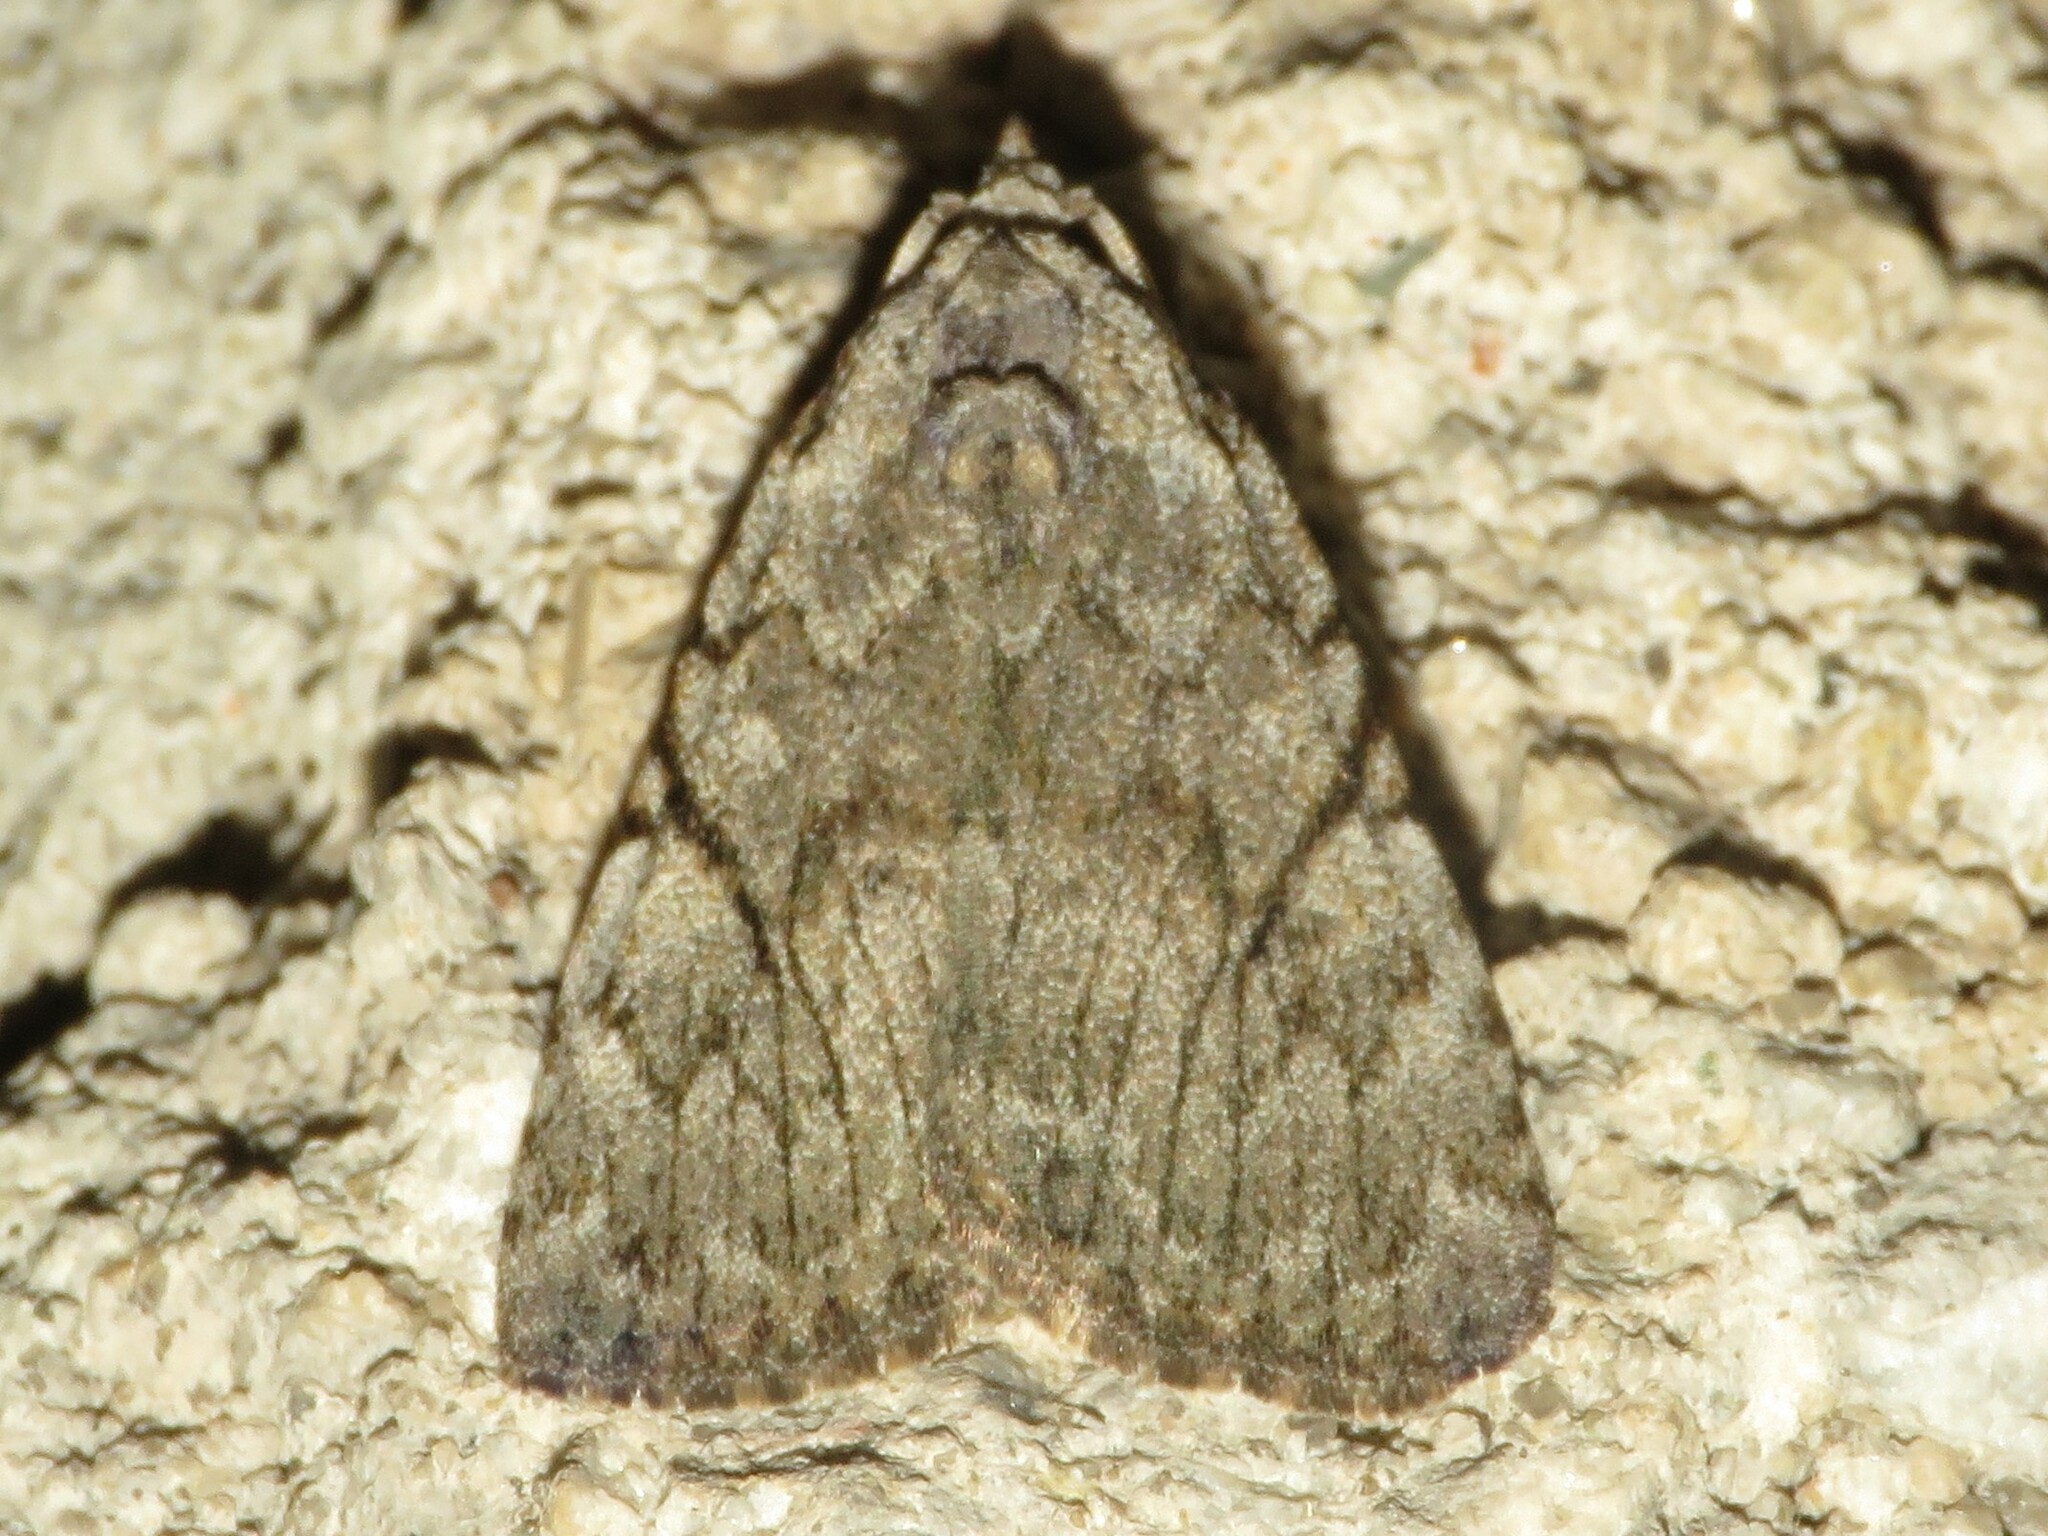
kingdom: Animalia
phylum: Arthropoda
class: Insecta
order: Lepidoptera
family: Noctuidae
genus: Balsa
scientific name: Balsa malana
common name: Many-dotted appleworm moth
